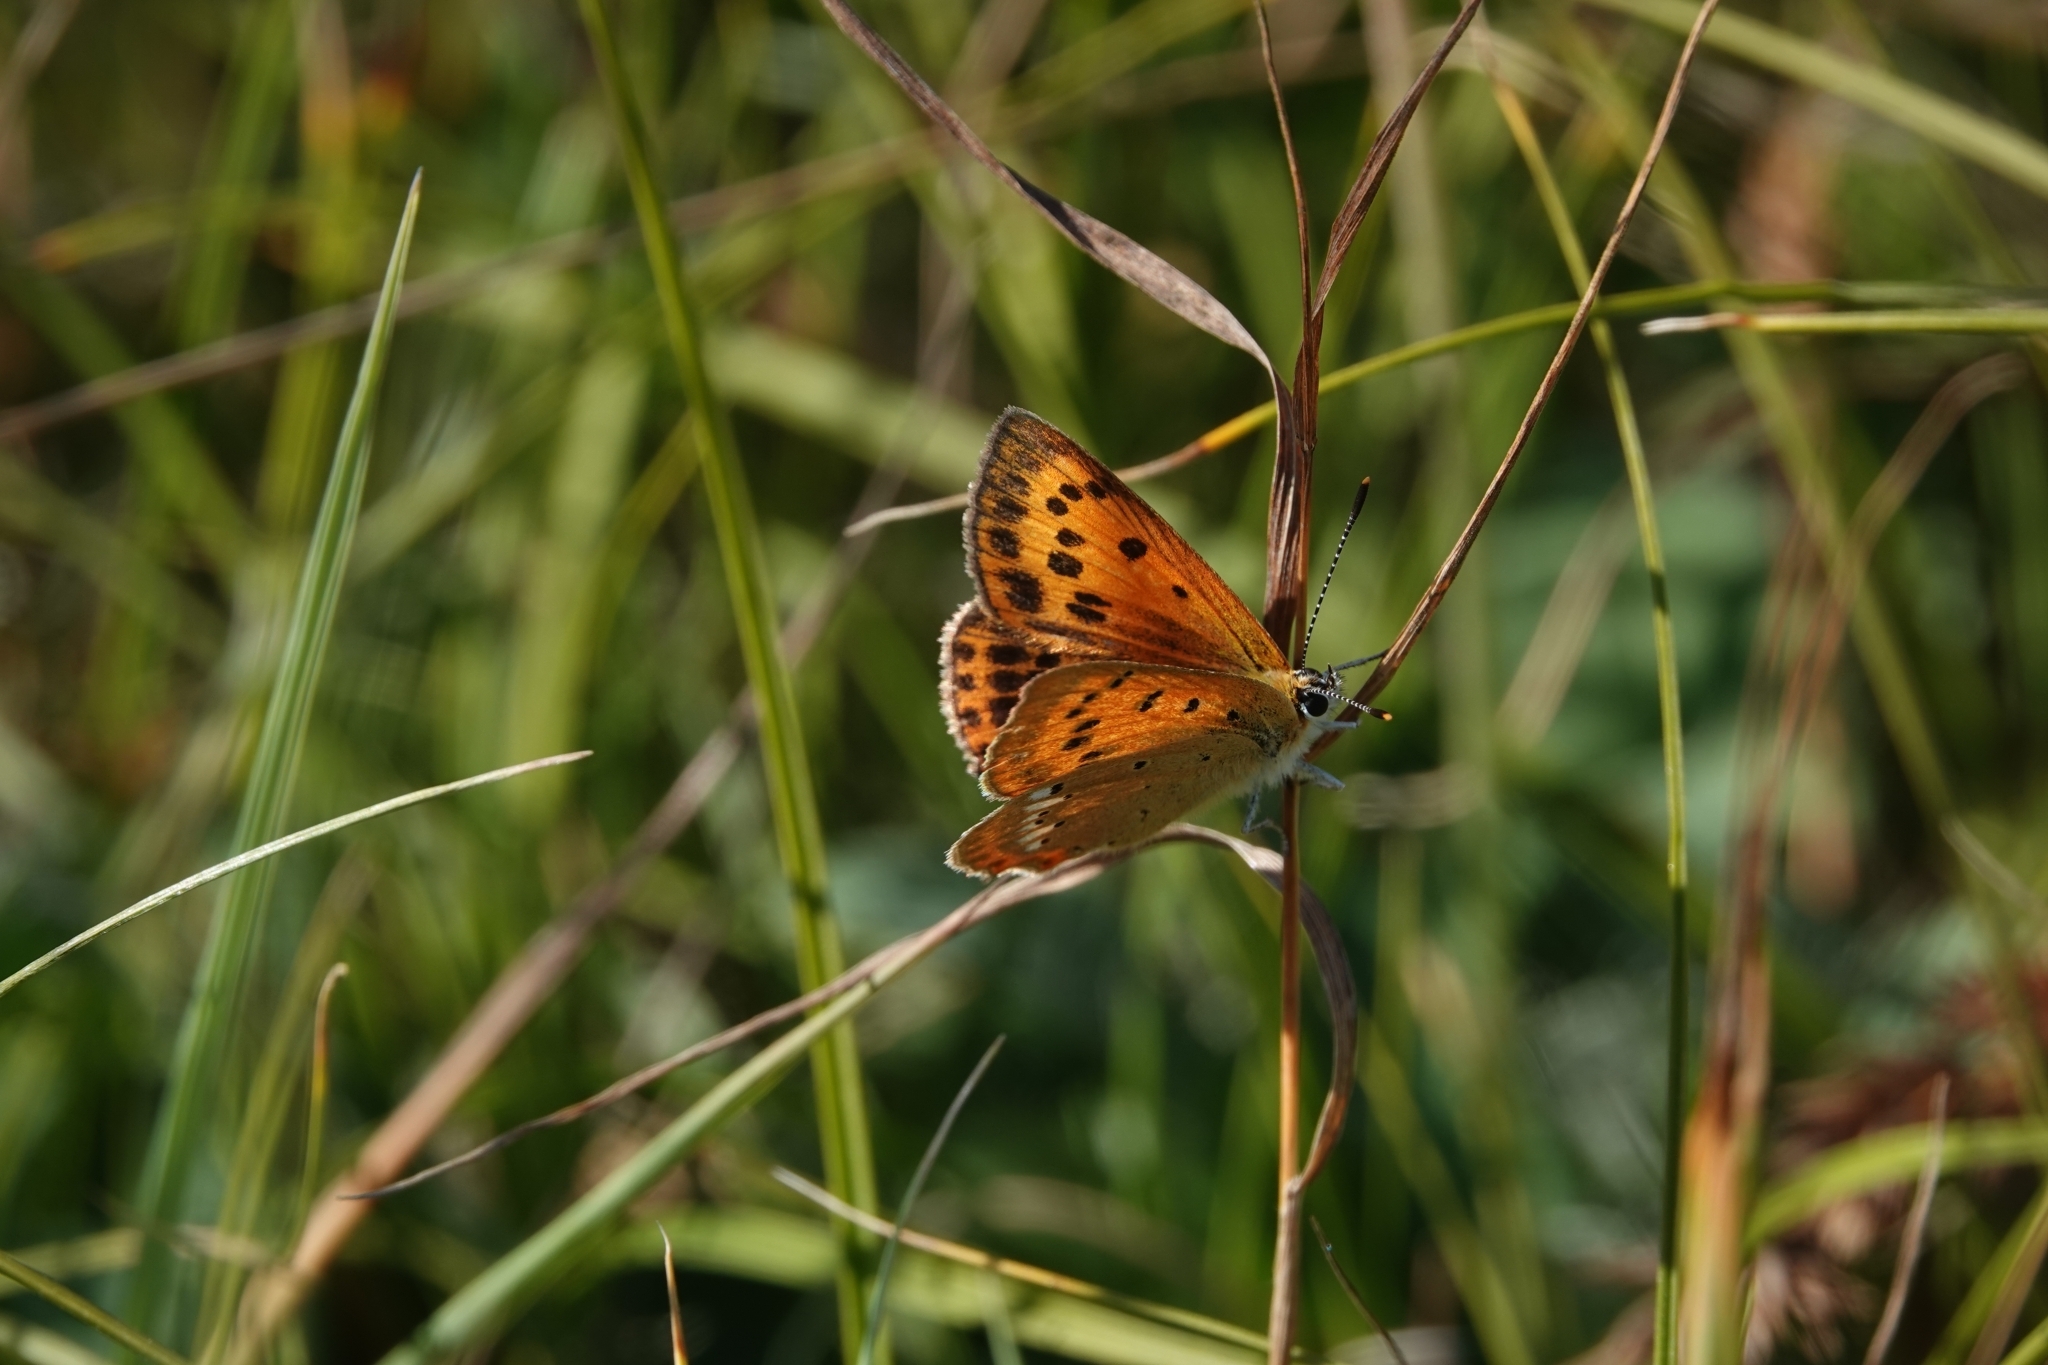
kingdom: Animalia
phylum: Arthropoda
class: Insecta
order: Lepidoptera
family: Lycaenidae
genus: Lycaena
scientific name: Lycaena virgaureae
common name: Scarce copper
